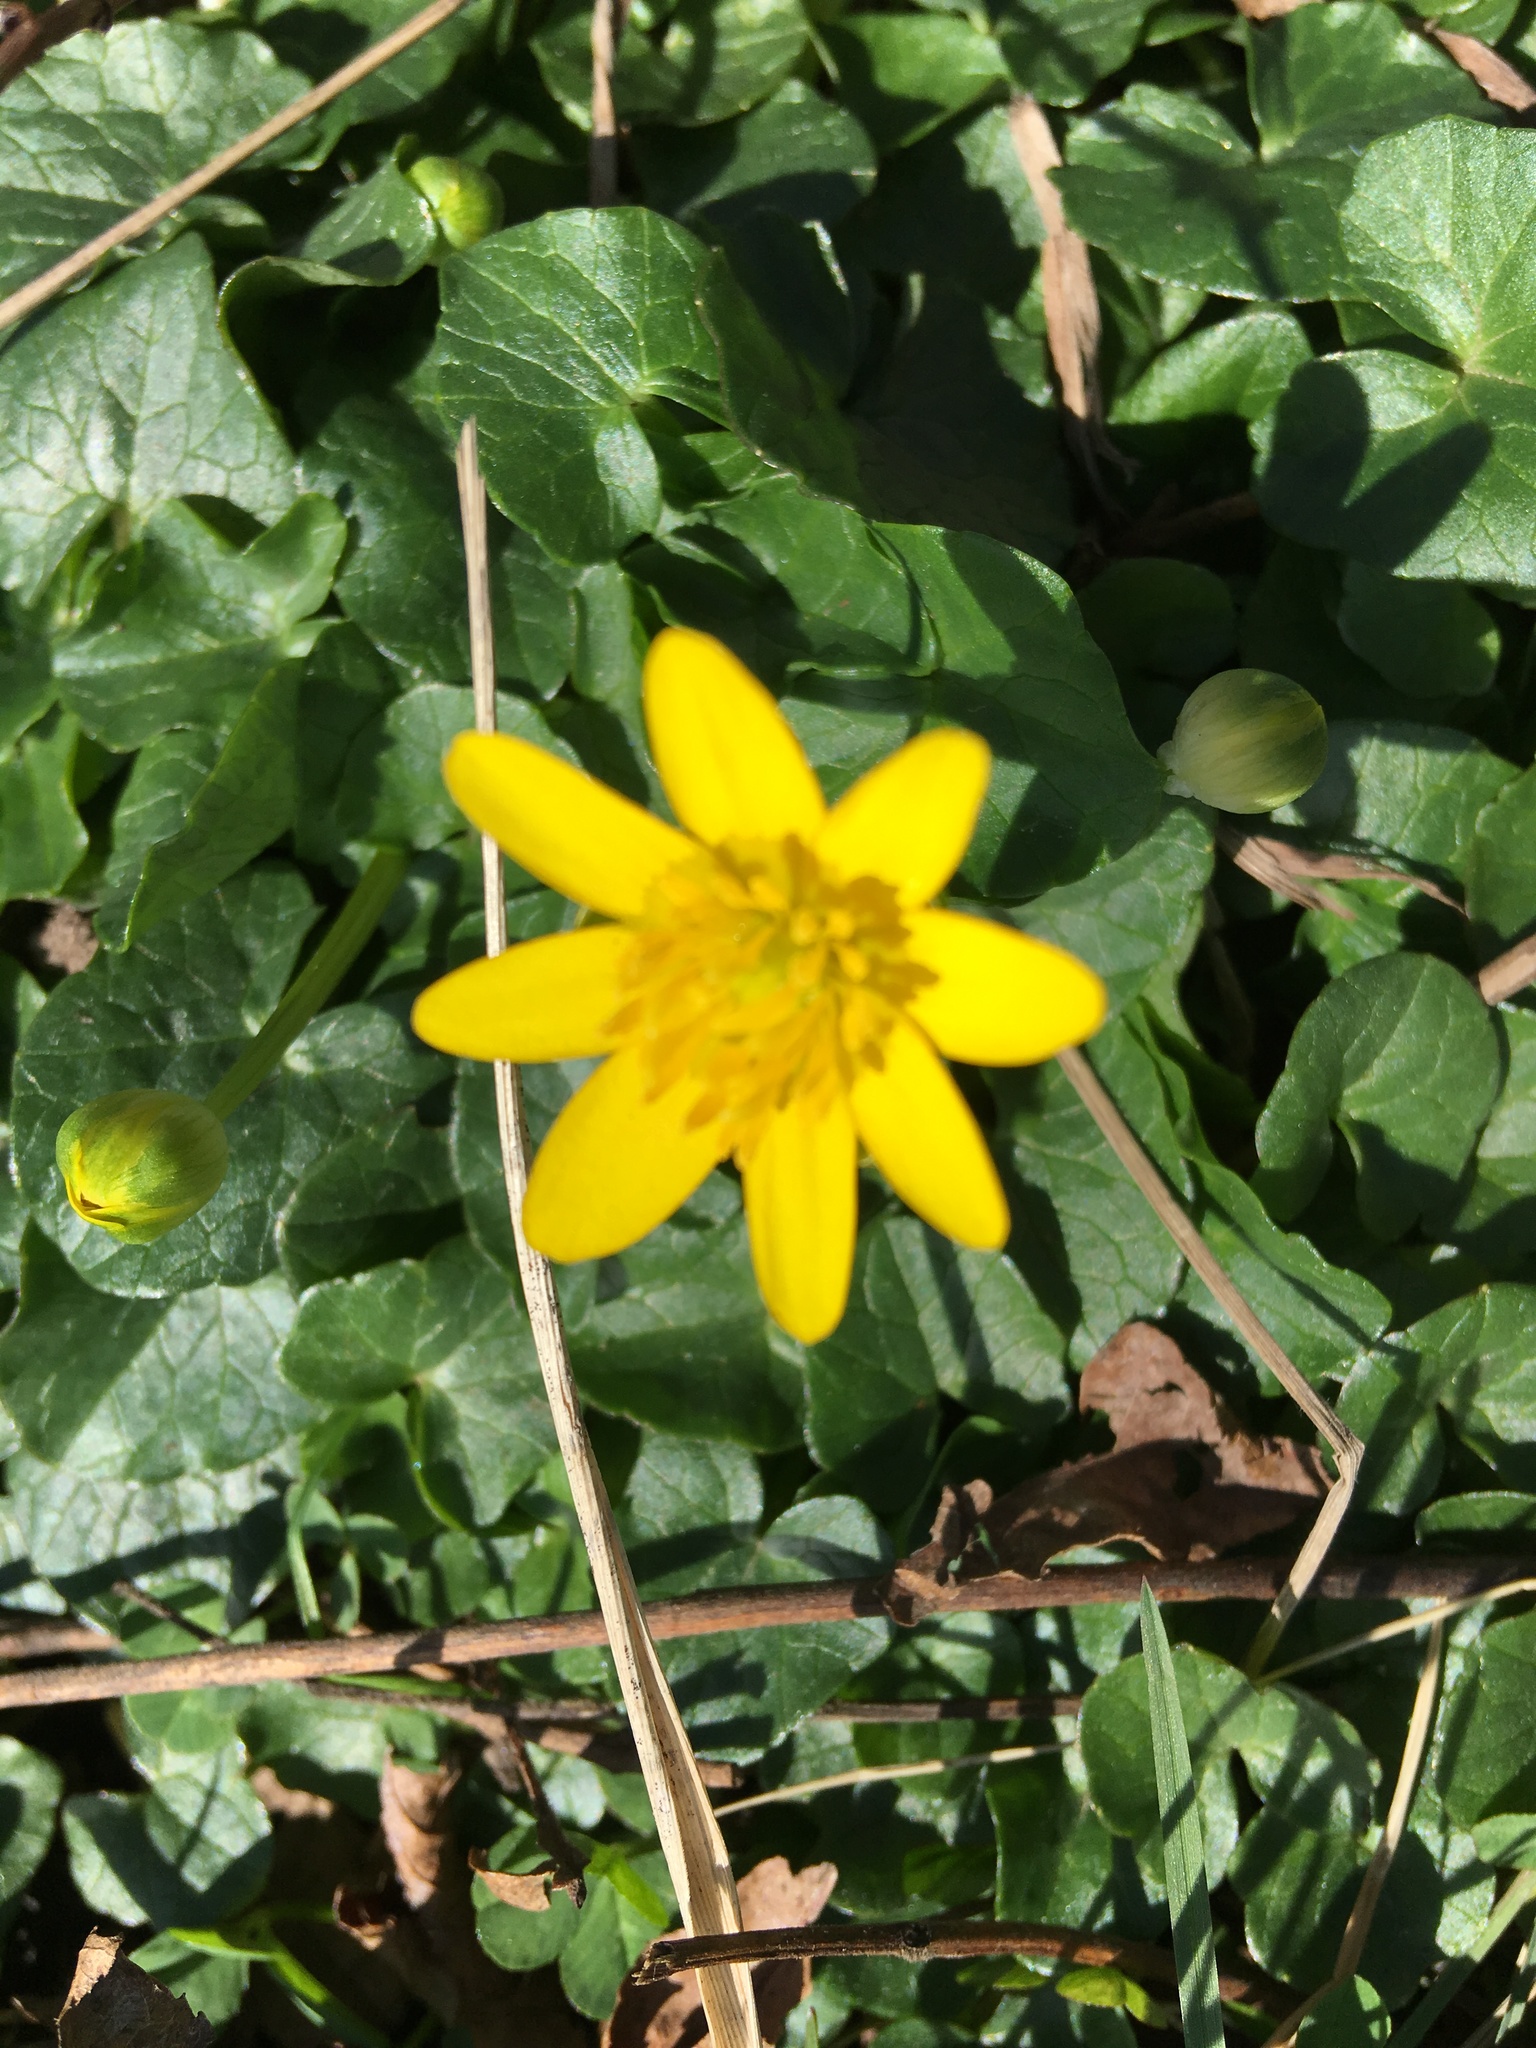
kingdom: Plantae
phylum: Tracheophyta
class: Magnoliopsida
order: Ranunculales
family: Ranunculaceae
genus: Ficaria
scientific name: Ficaria verna
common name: Lesser celandine
